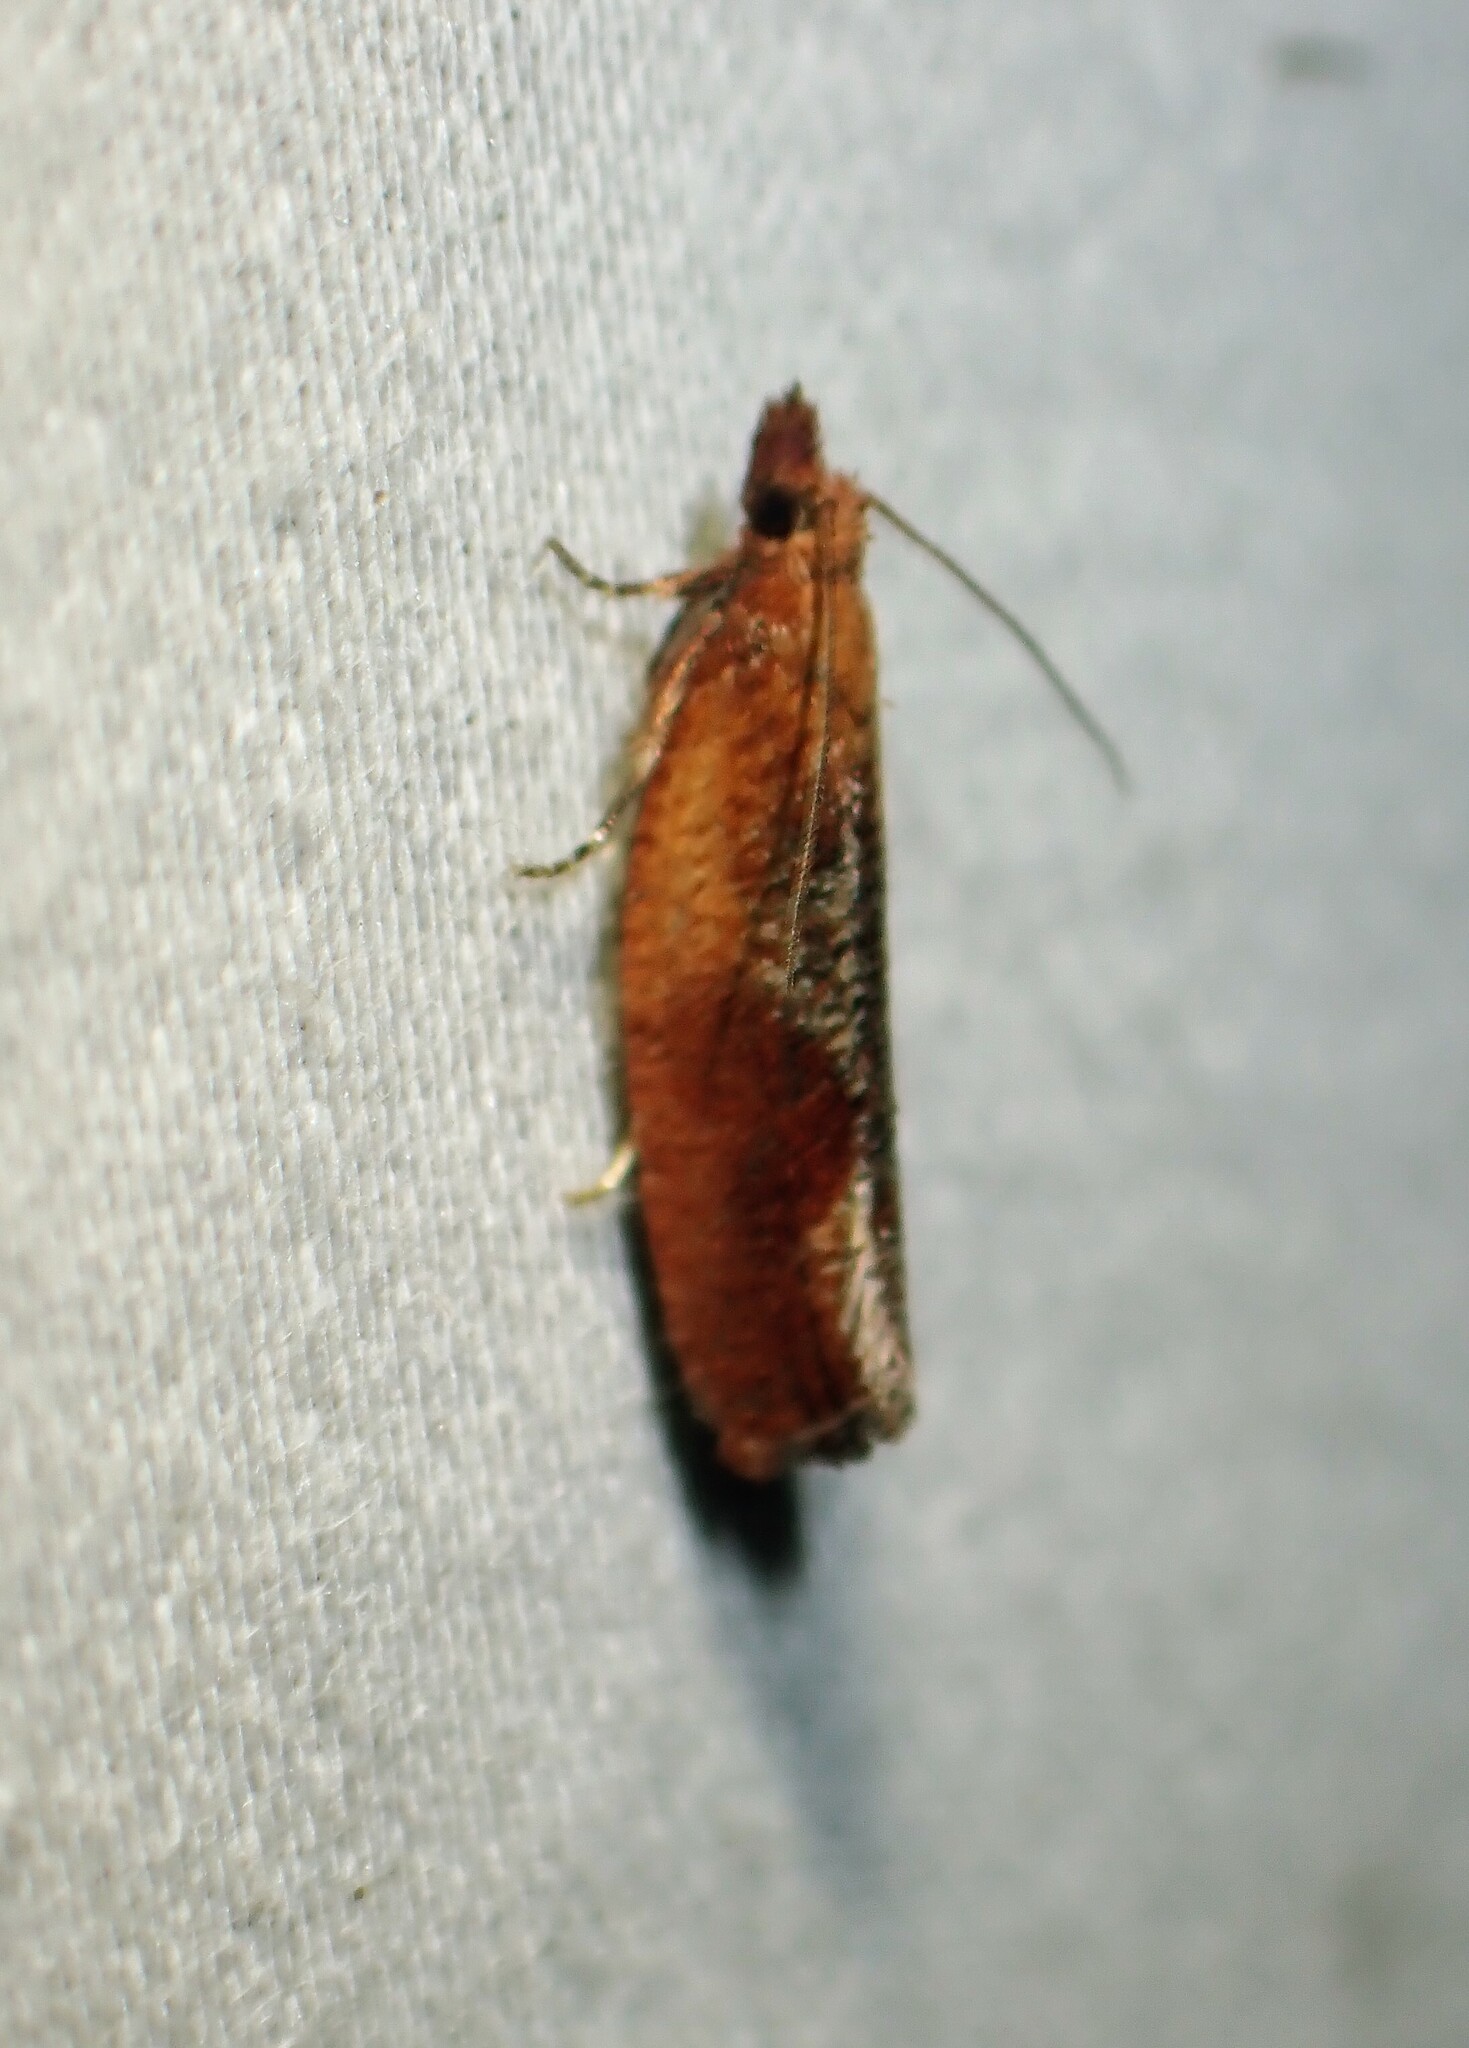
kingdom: Animalia
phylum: Arthropoda
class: Insecta
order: Lepidoptera
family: Tortricidae
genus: Epinotia
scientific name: Epinotia septemberana
